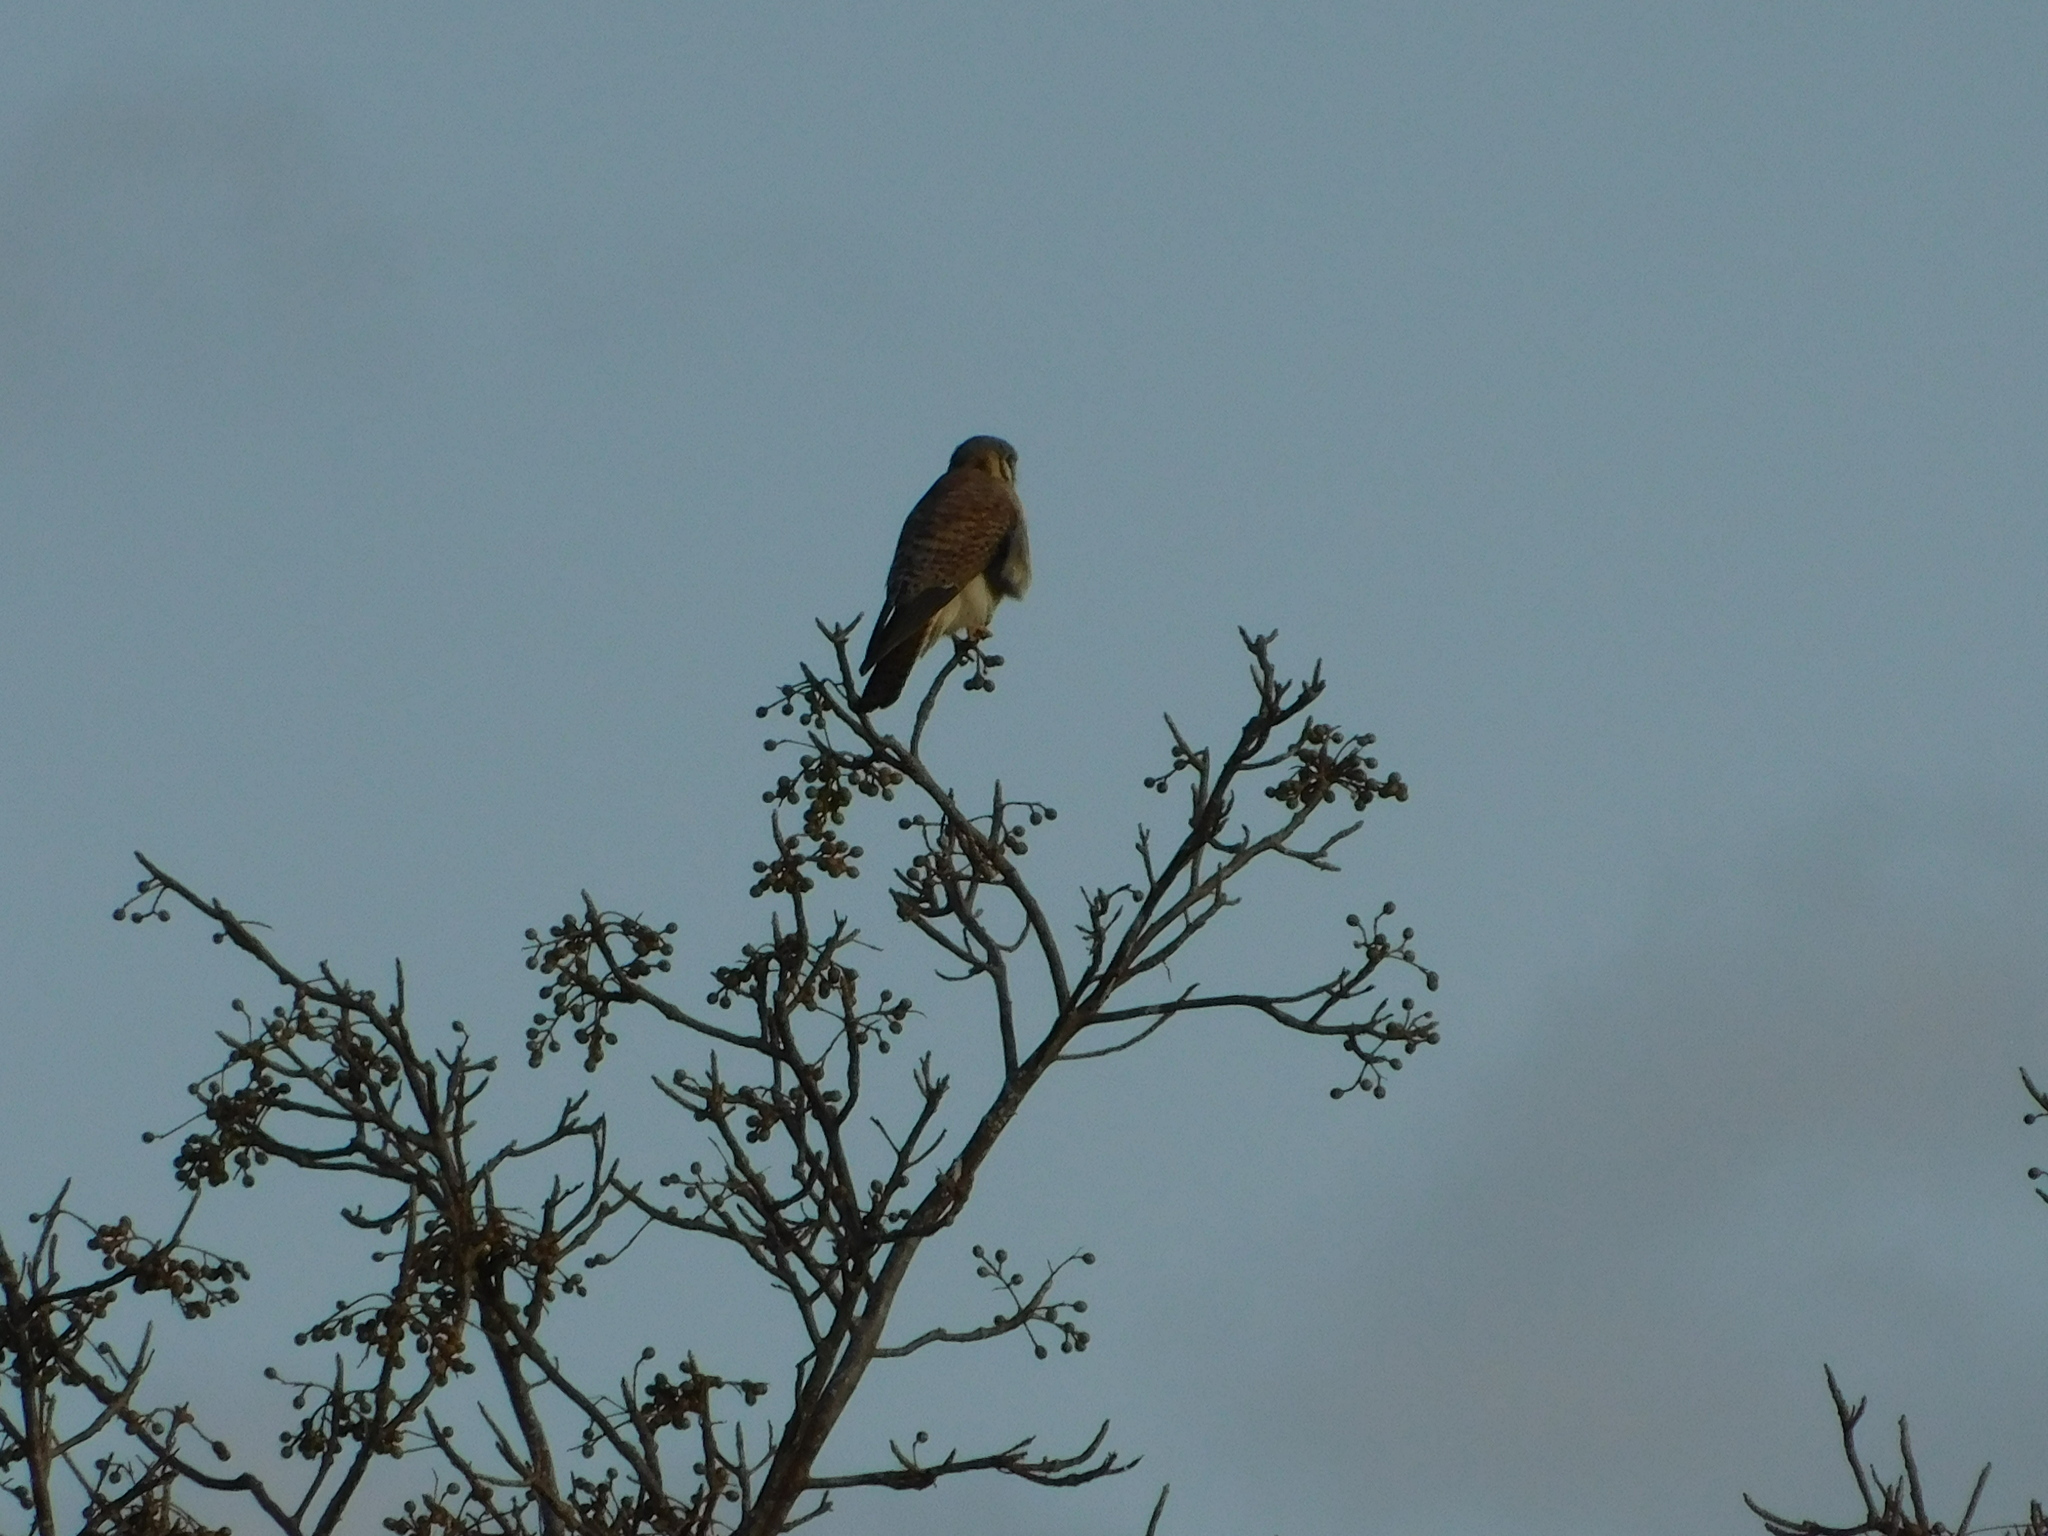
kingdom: Animalia
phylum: Chordata
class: Aves
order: Falconiformes
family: Falconidae
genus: Falco
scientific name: Falco sparverius
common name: American kestrel
